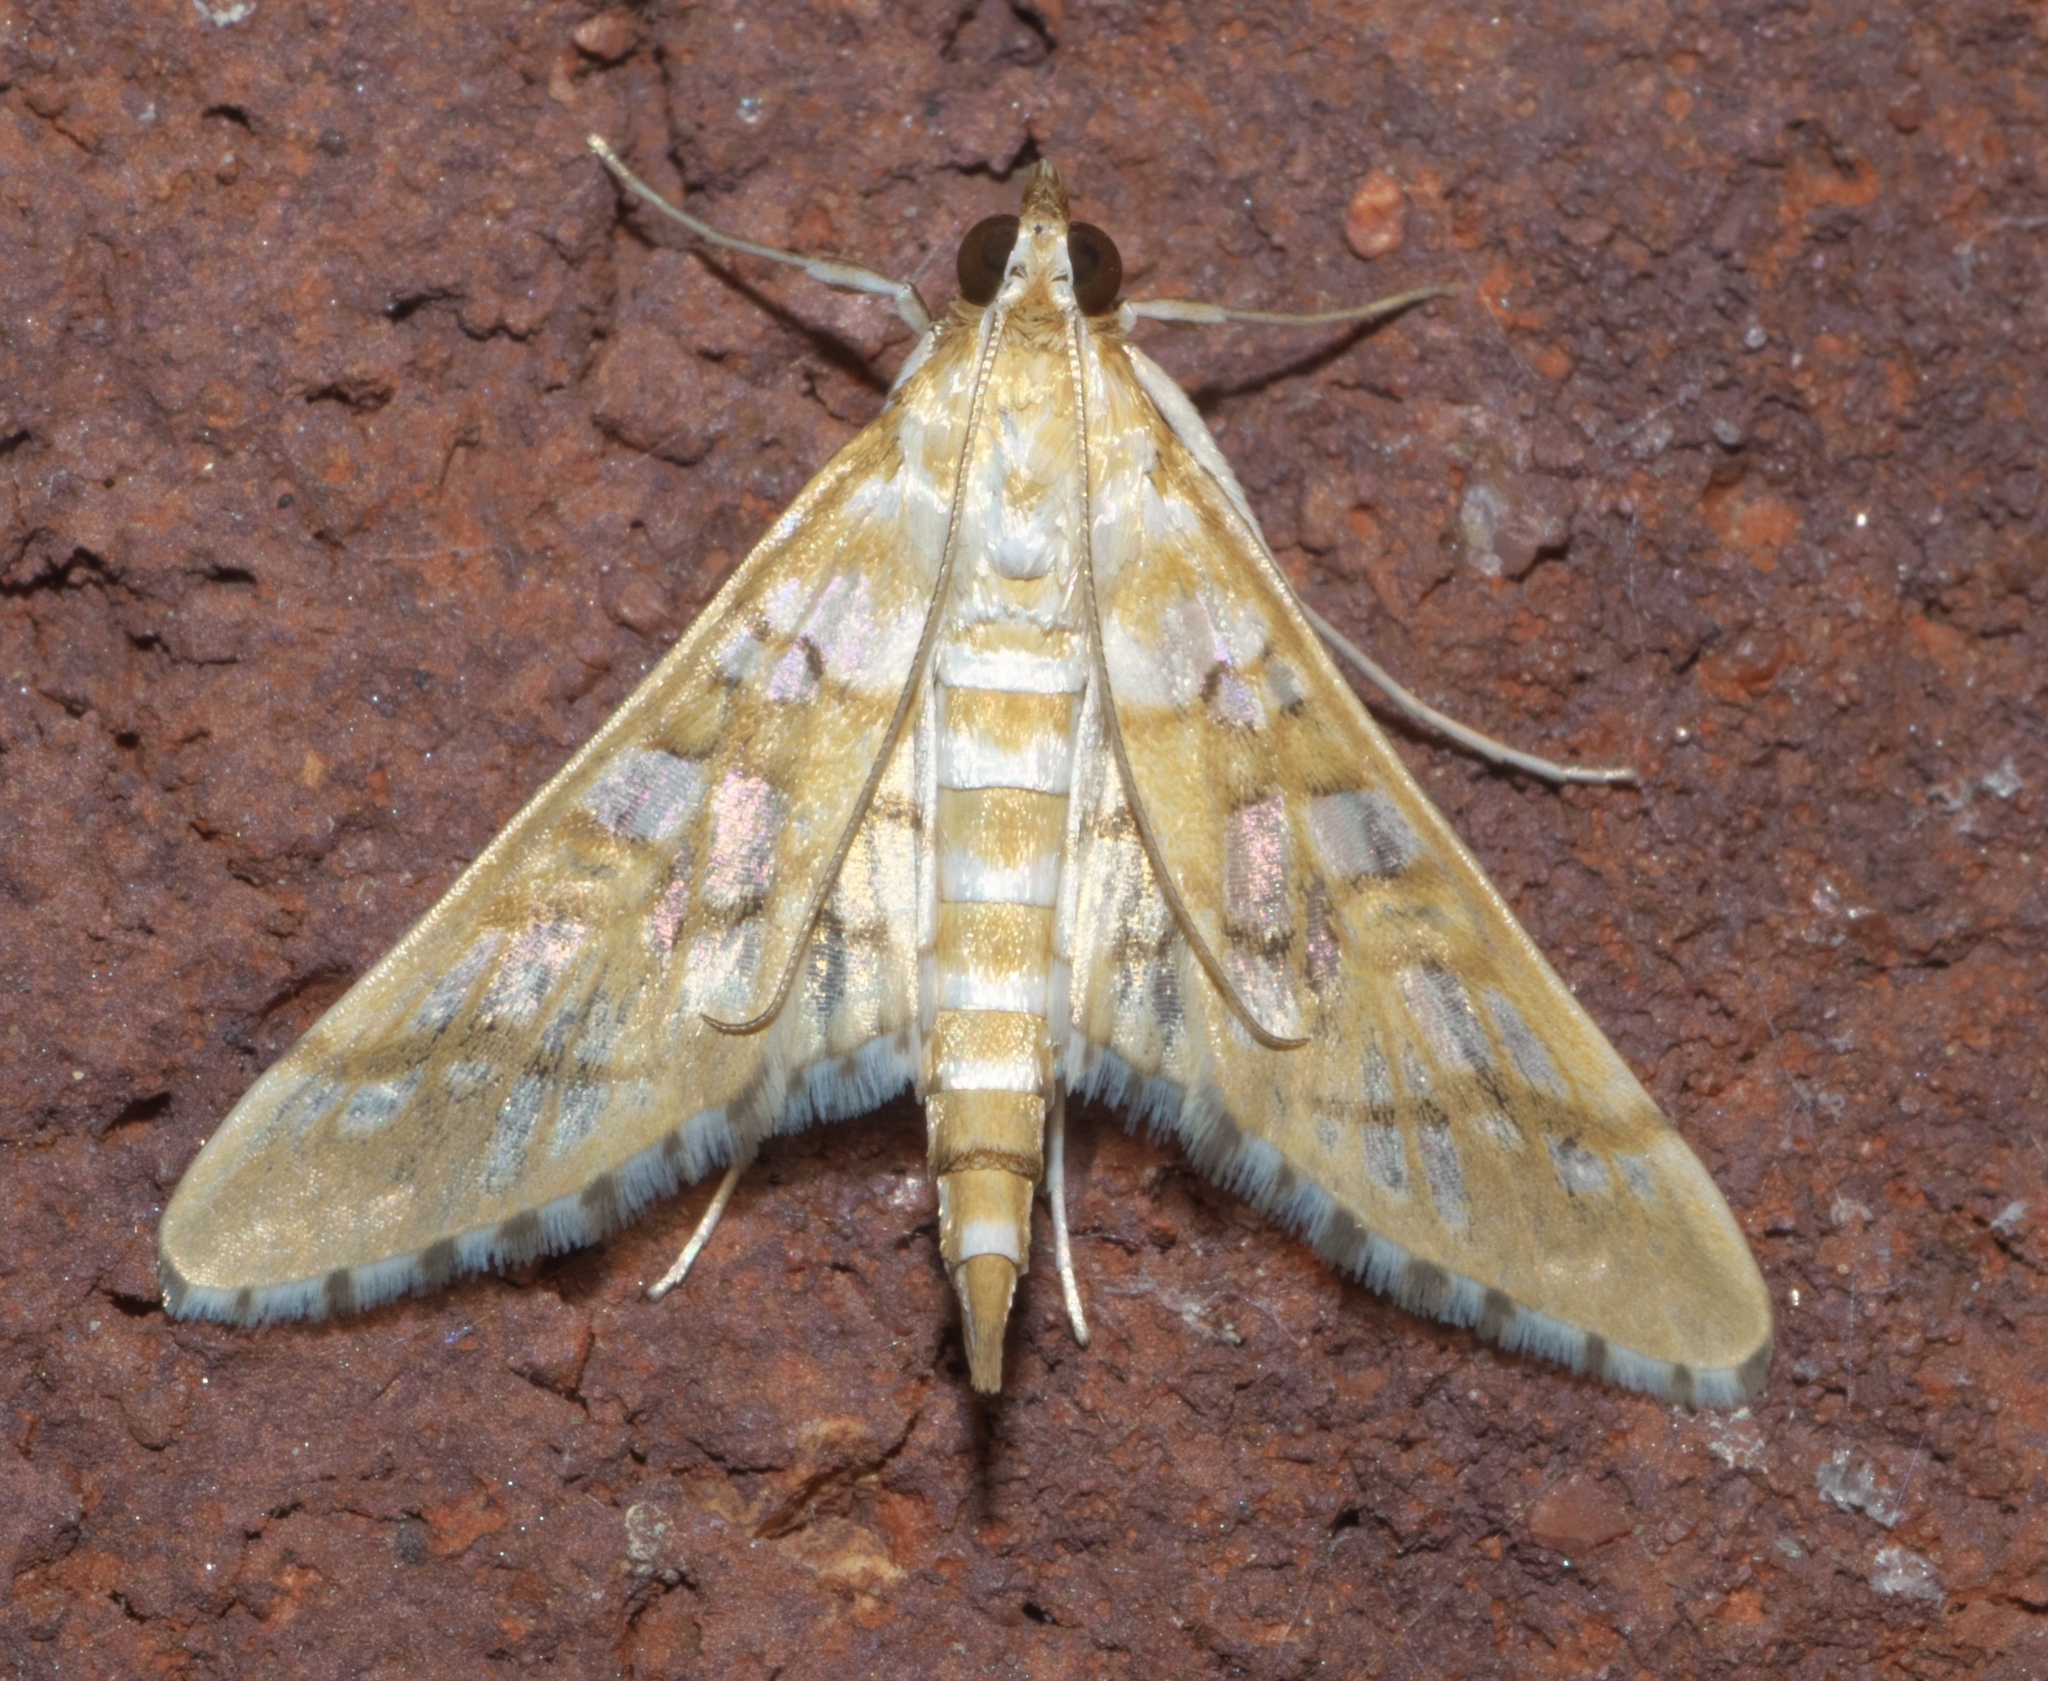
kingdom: Animalia
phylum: Arthropoda
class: Insecta
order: Lepidoptera
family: Crambidae
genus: Epipagis
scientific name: Epipagis fenestralis
